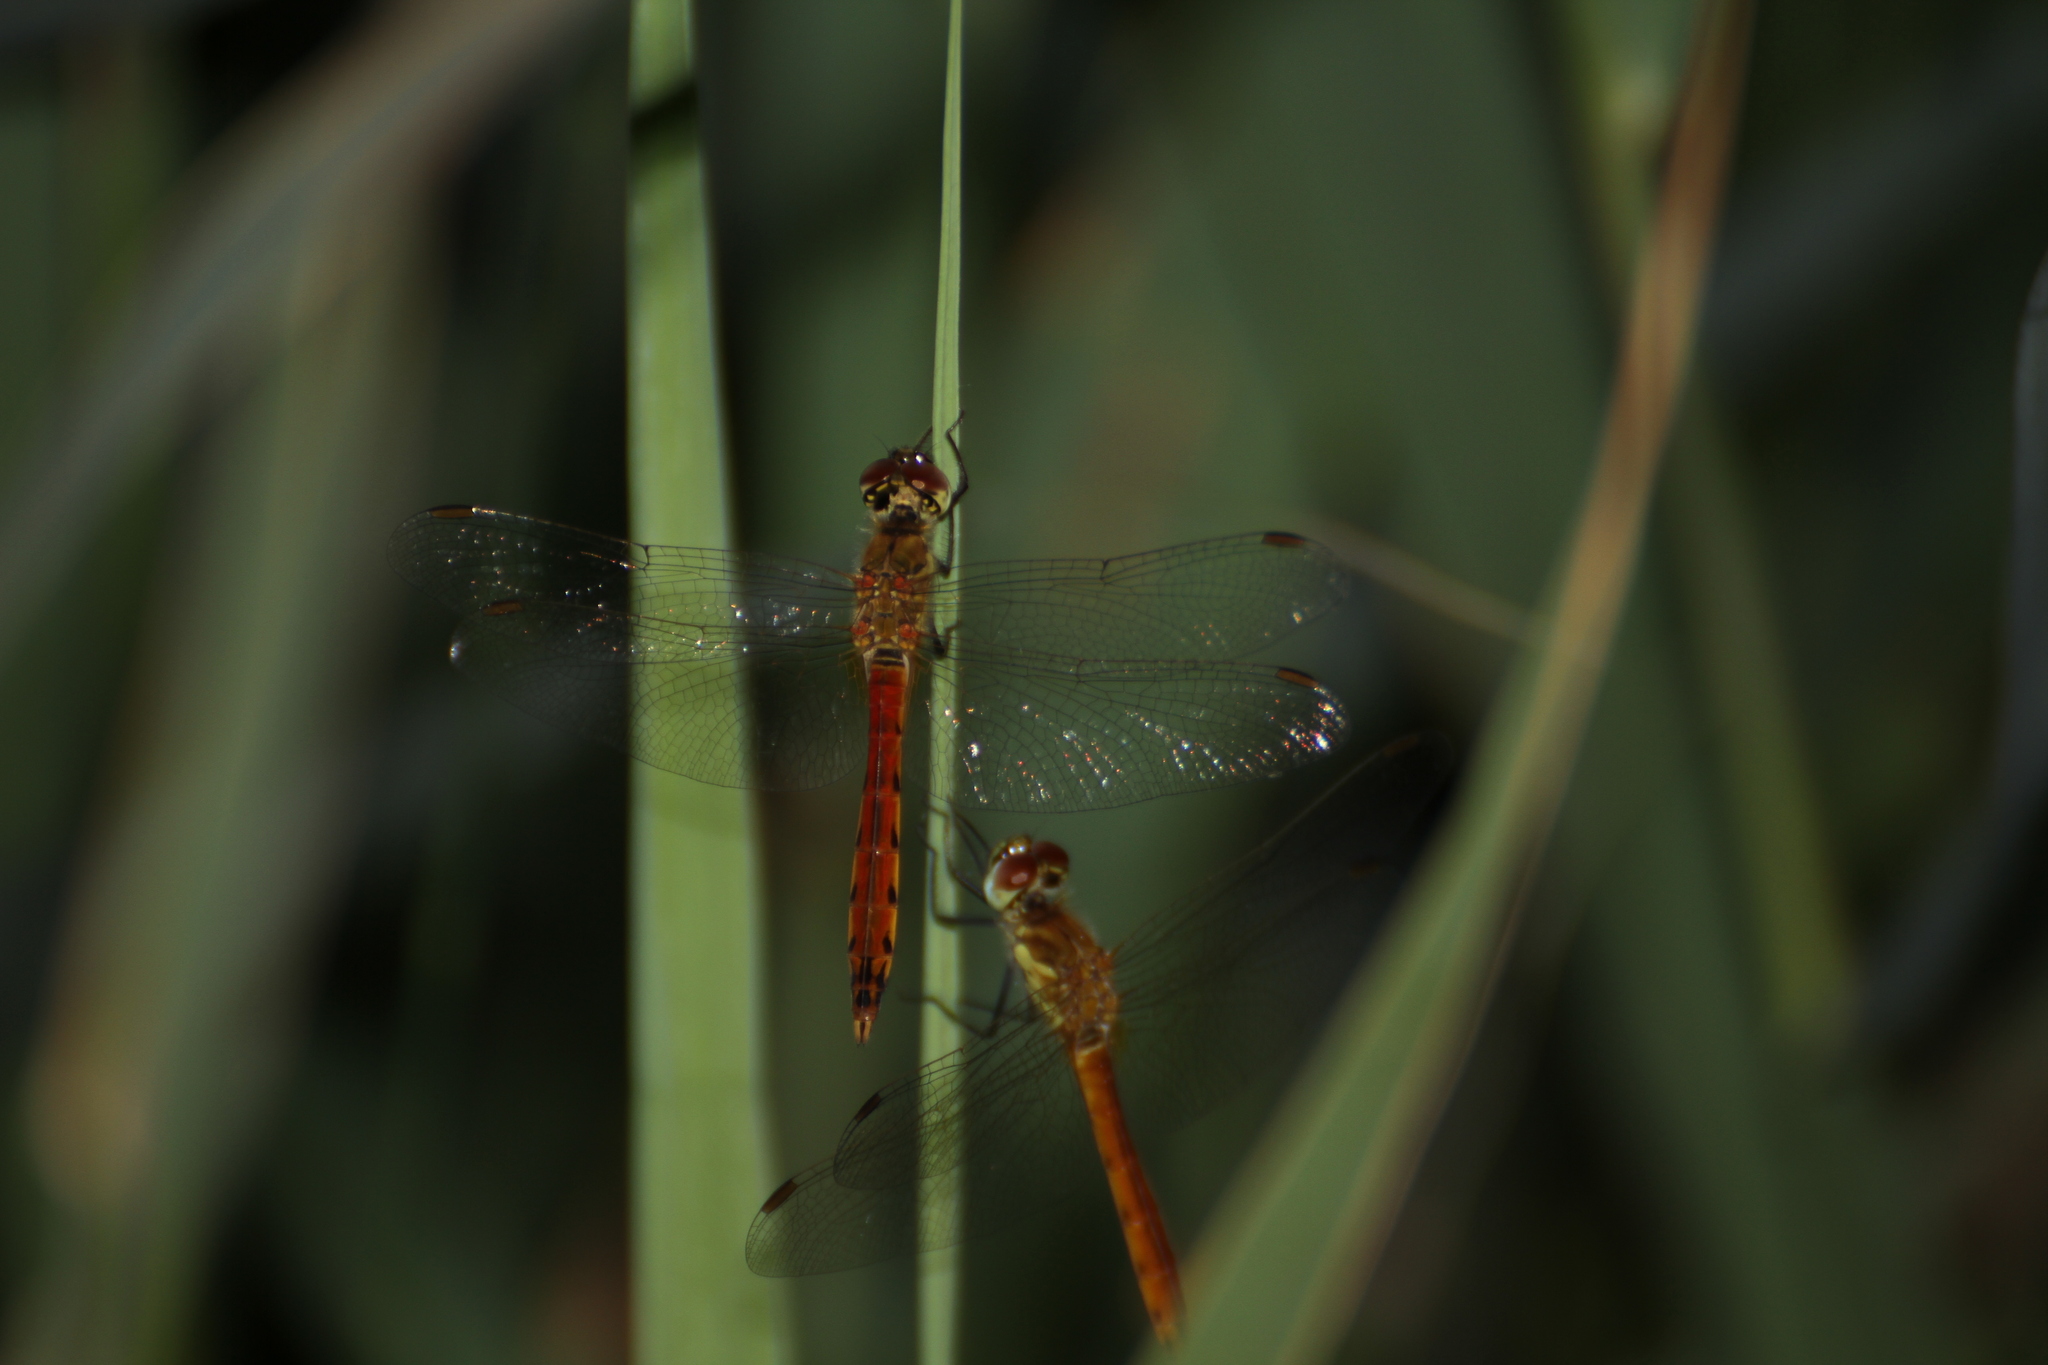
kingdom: Animalia
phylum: Arthropoda
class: Insecta
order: Odonata
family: Libellulidae
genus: Sympetrum
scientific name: Sympetrum depressiusculum
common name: Spotted darter
